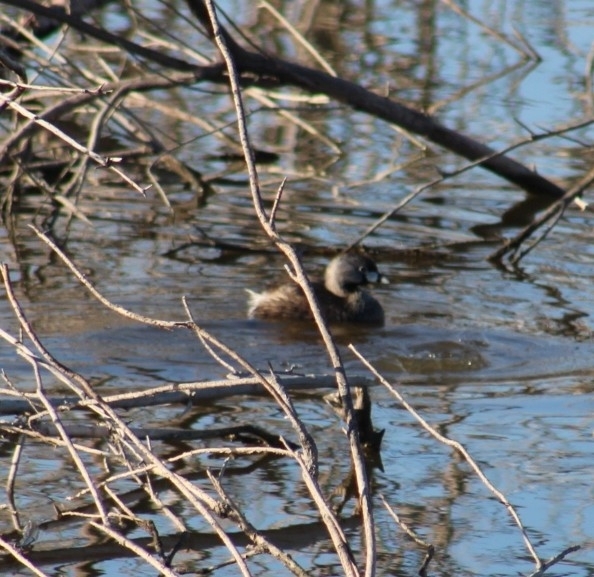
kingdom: Animalia
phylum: Chordata
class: Aves
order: Podicipediformes
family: Podicipedidae
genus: Podilymbus
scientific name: Podilymbus podiceps
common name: Pied-billed grebe
